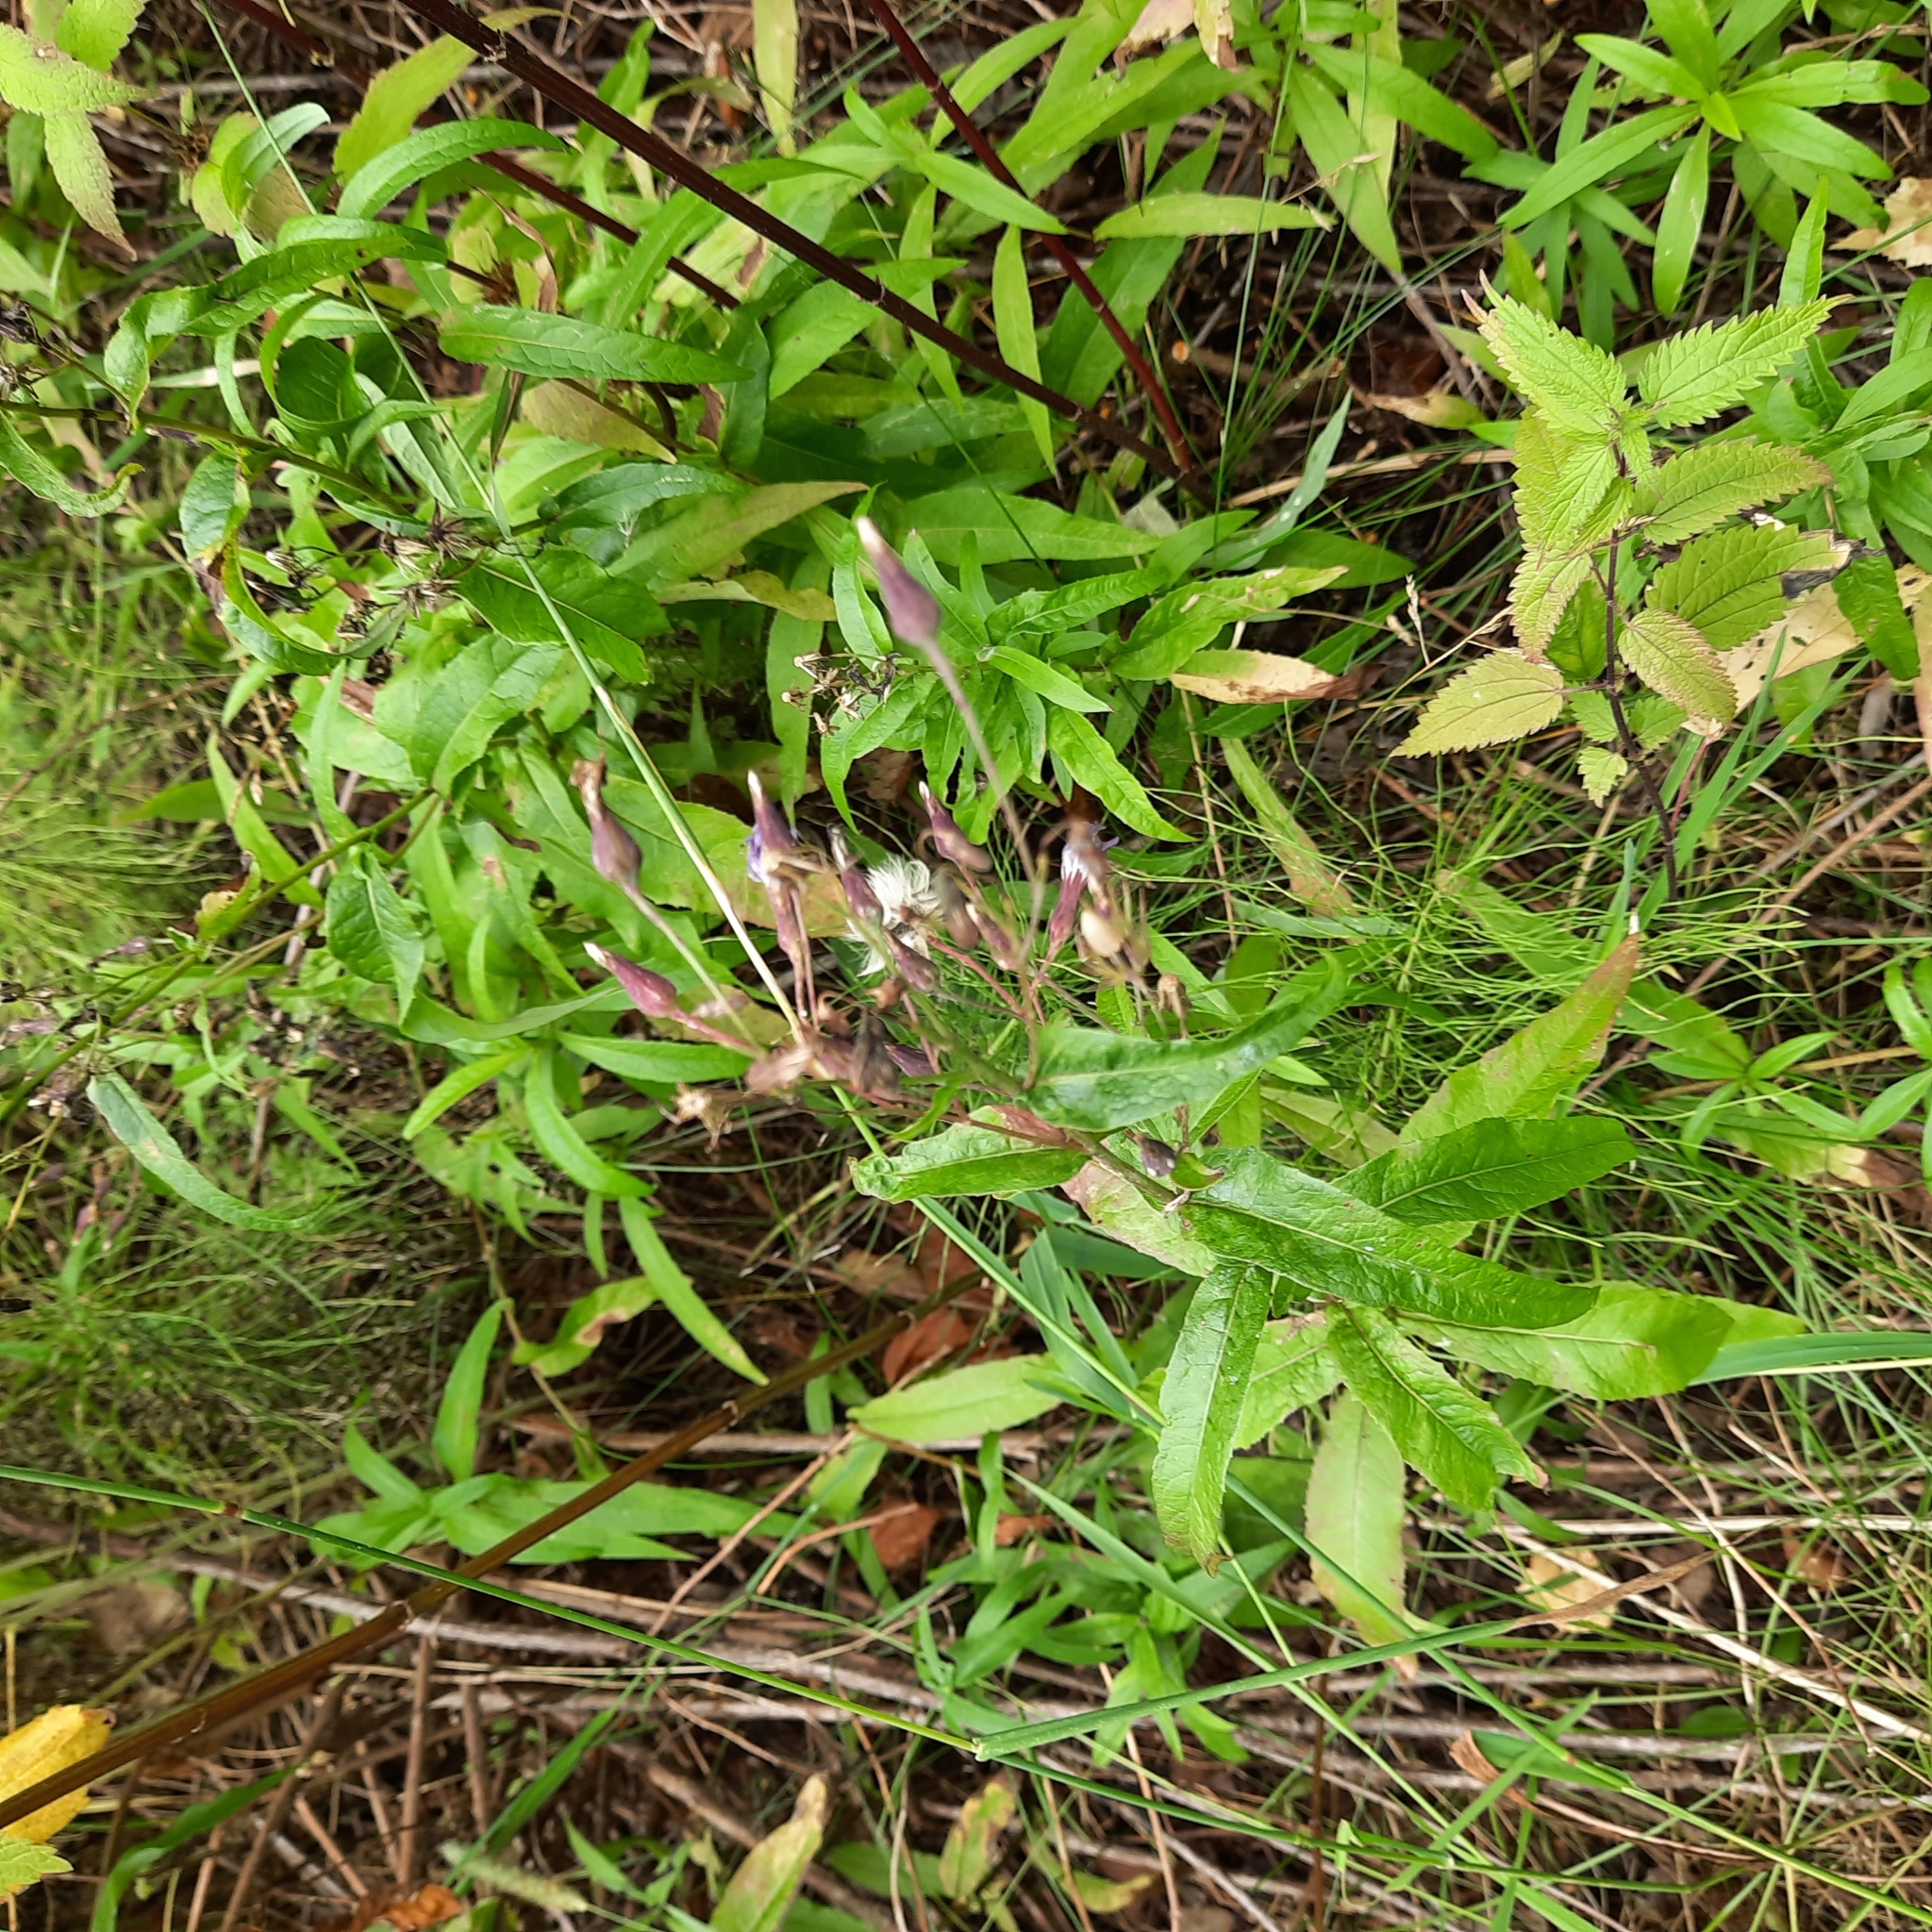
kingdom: Plantae
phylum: Tracheophyta
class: Magnoliopsida
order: Asterales
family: Asteraceae
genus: Lactuca
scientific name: Lactuca sibirica
